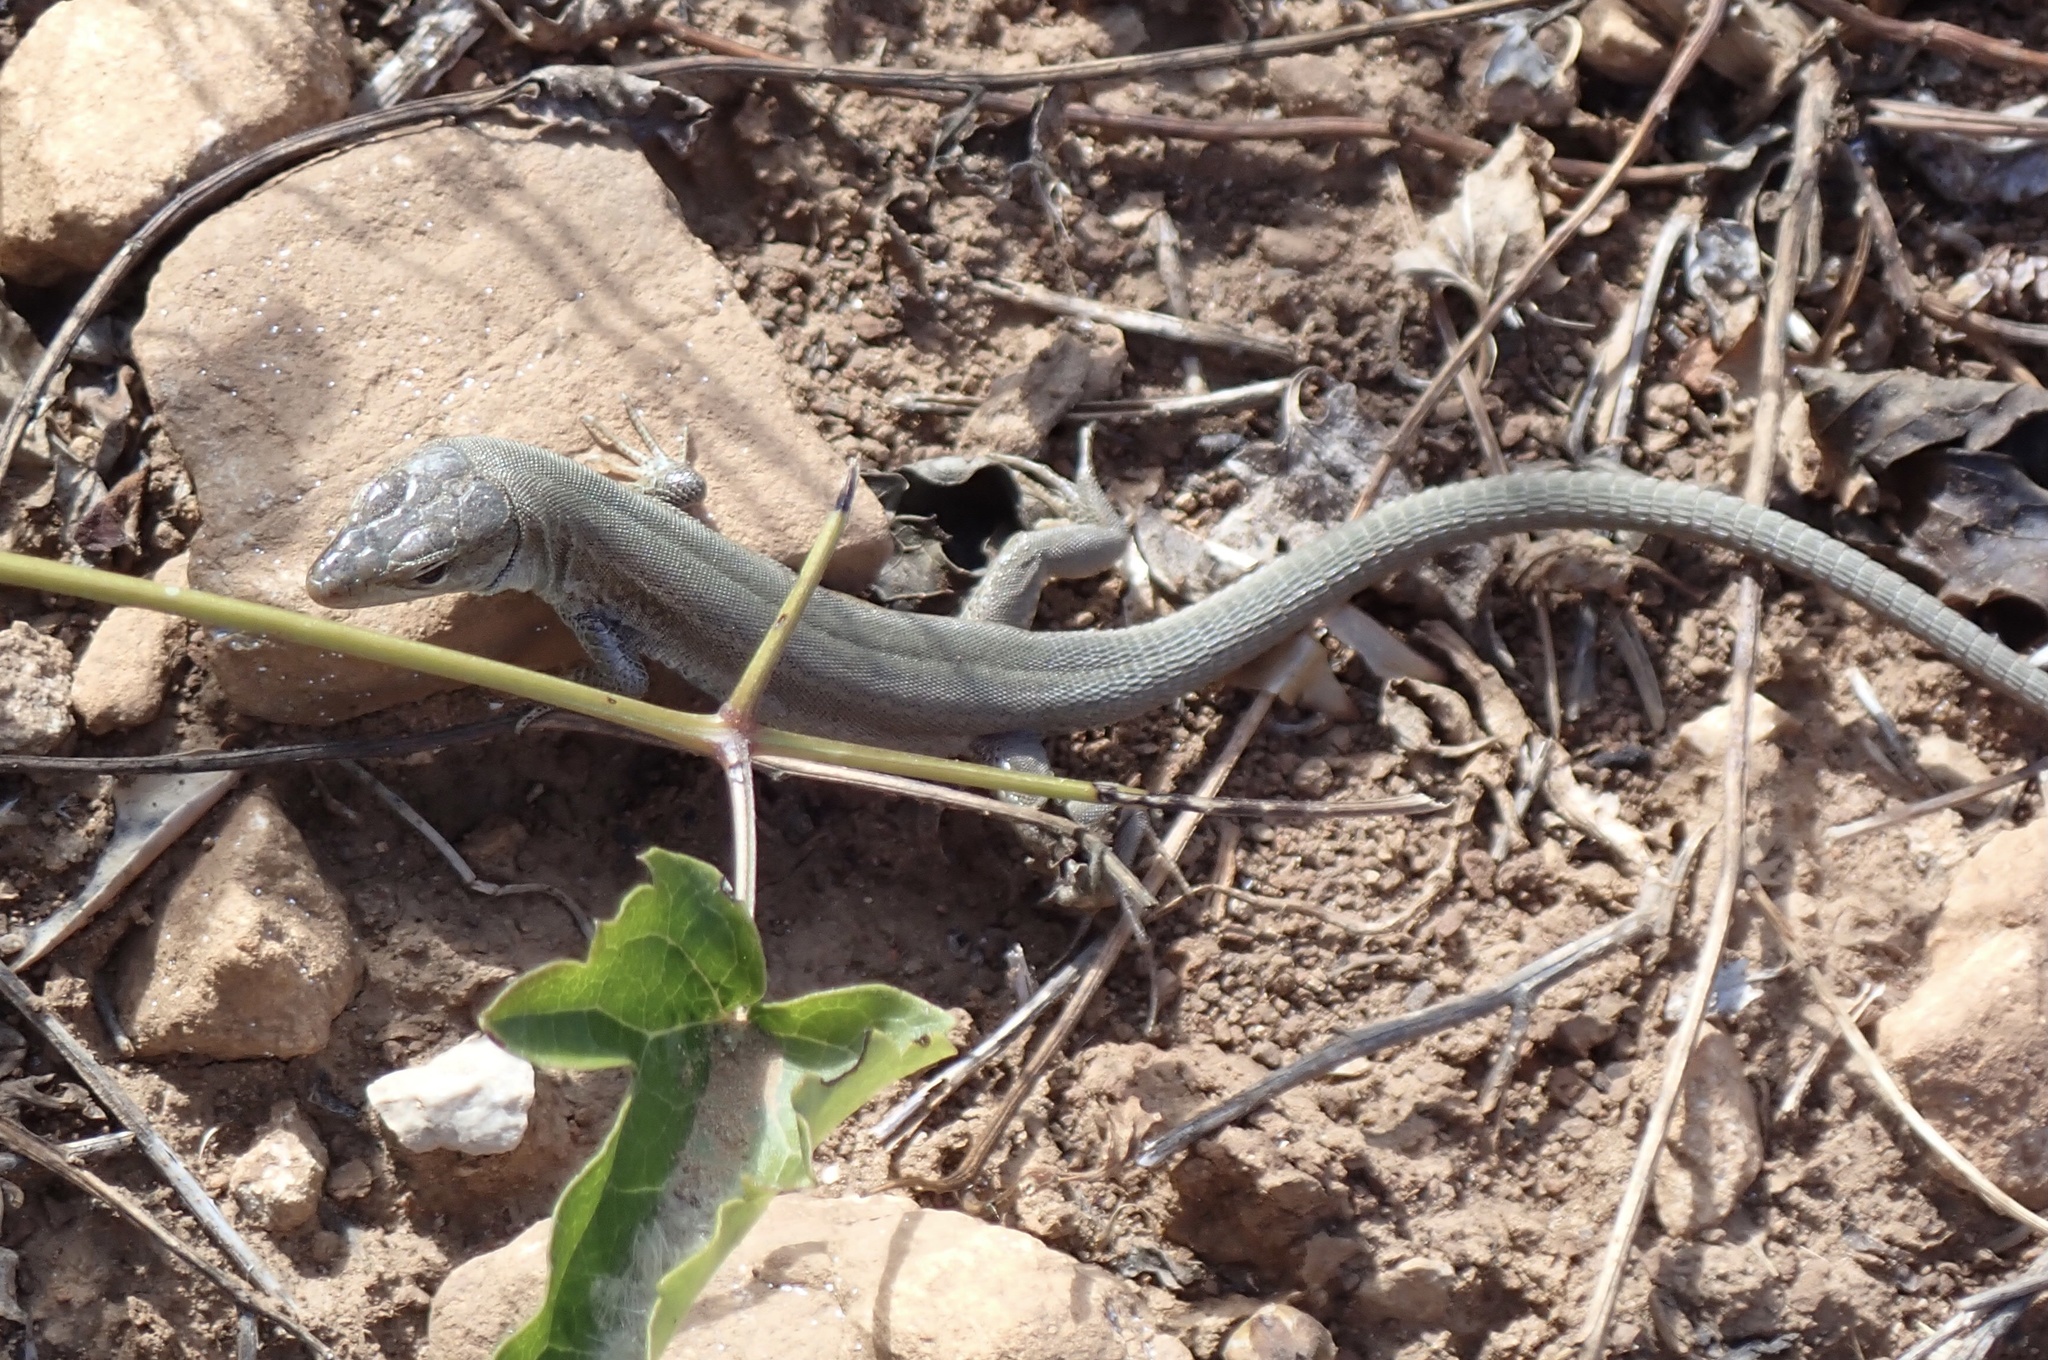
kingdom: Animalia
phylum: Chordata
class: Squamata
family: Lacertidae
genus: Podarcis
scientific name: Podarcis melisellensis
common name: Dalmatian wall lizard
